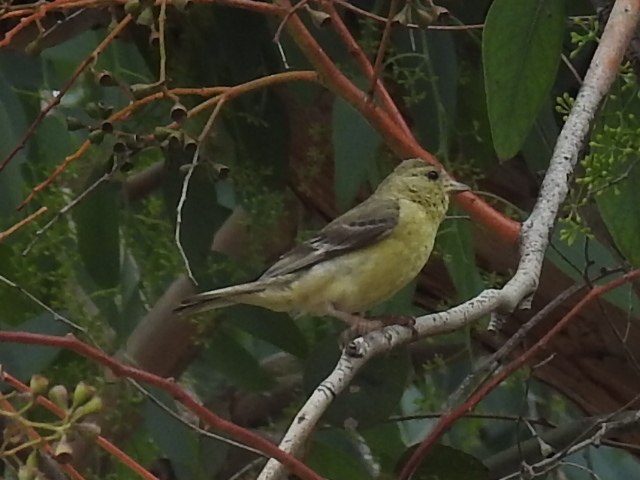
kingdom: Animalia
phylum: Chordata
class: Aves
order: Passeriformes
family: Fringillidae
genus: Spinus
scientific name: Spinus psaltria
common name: Lesser goldfinch
